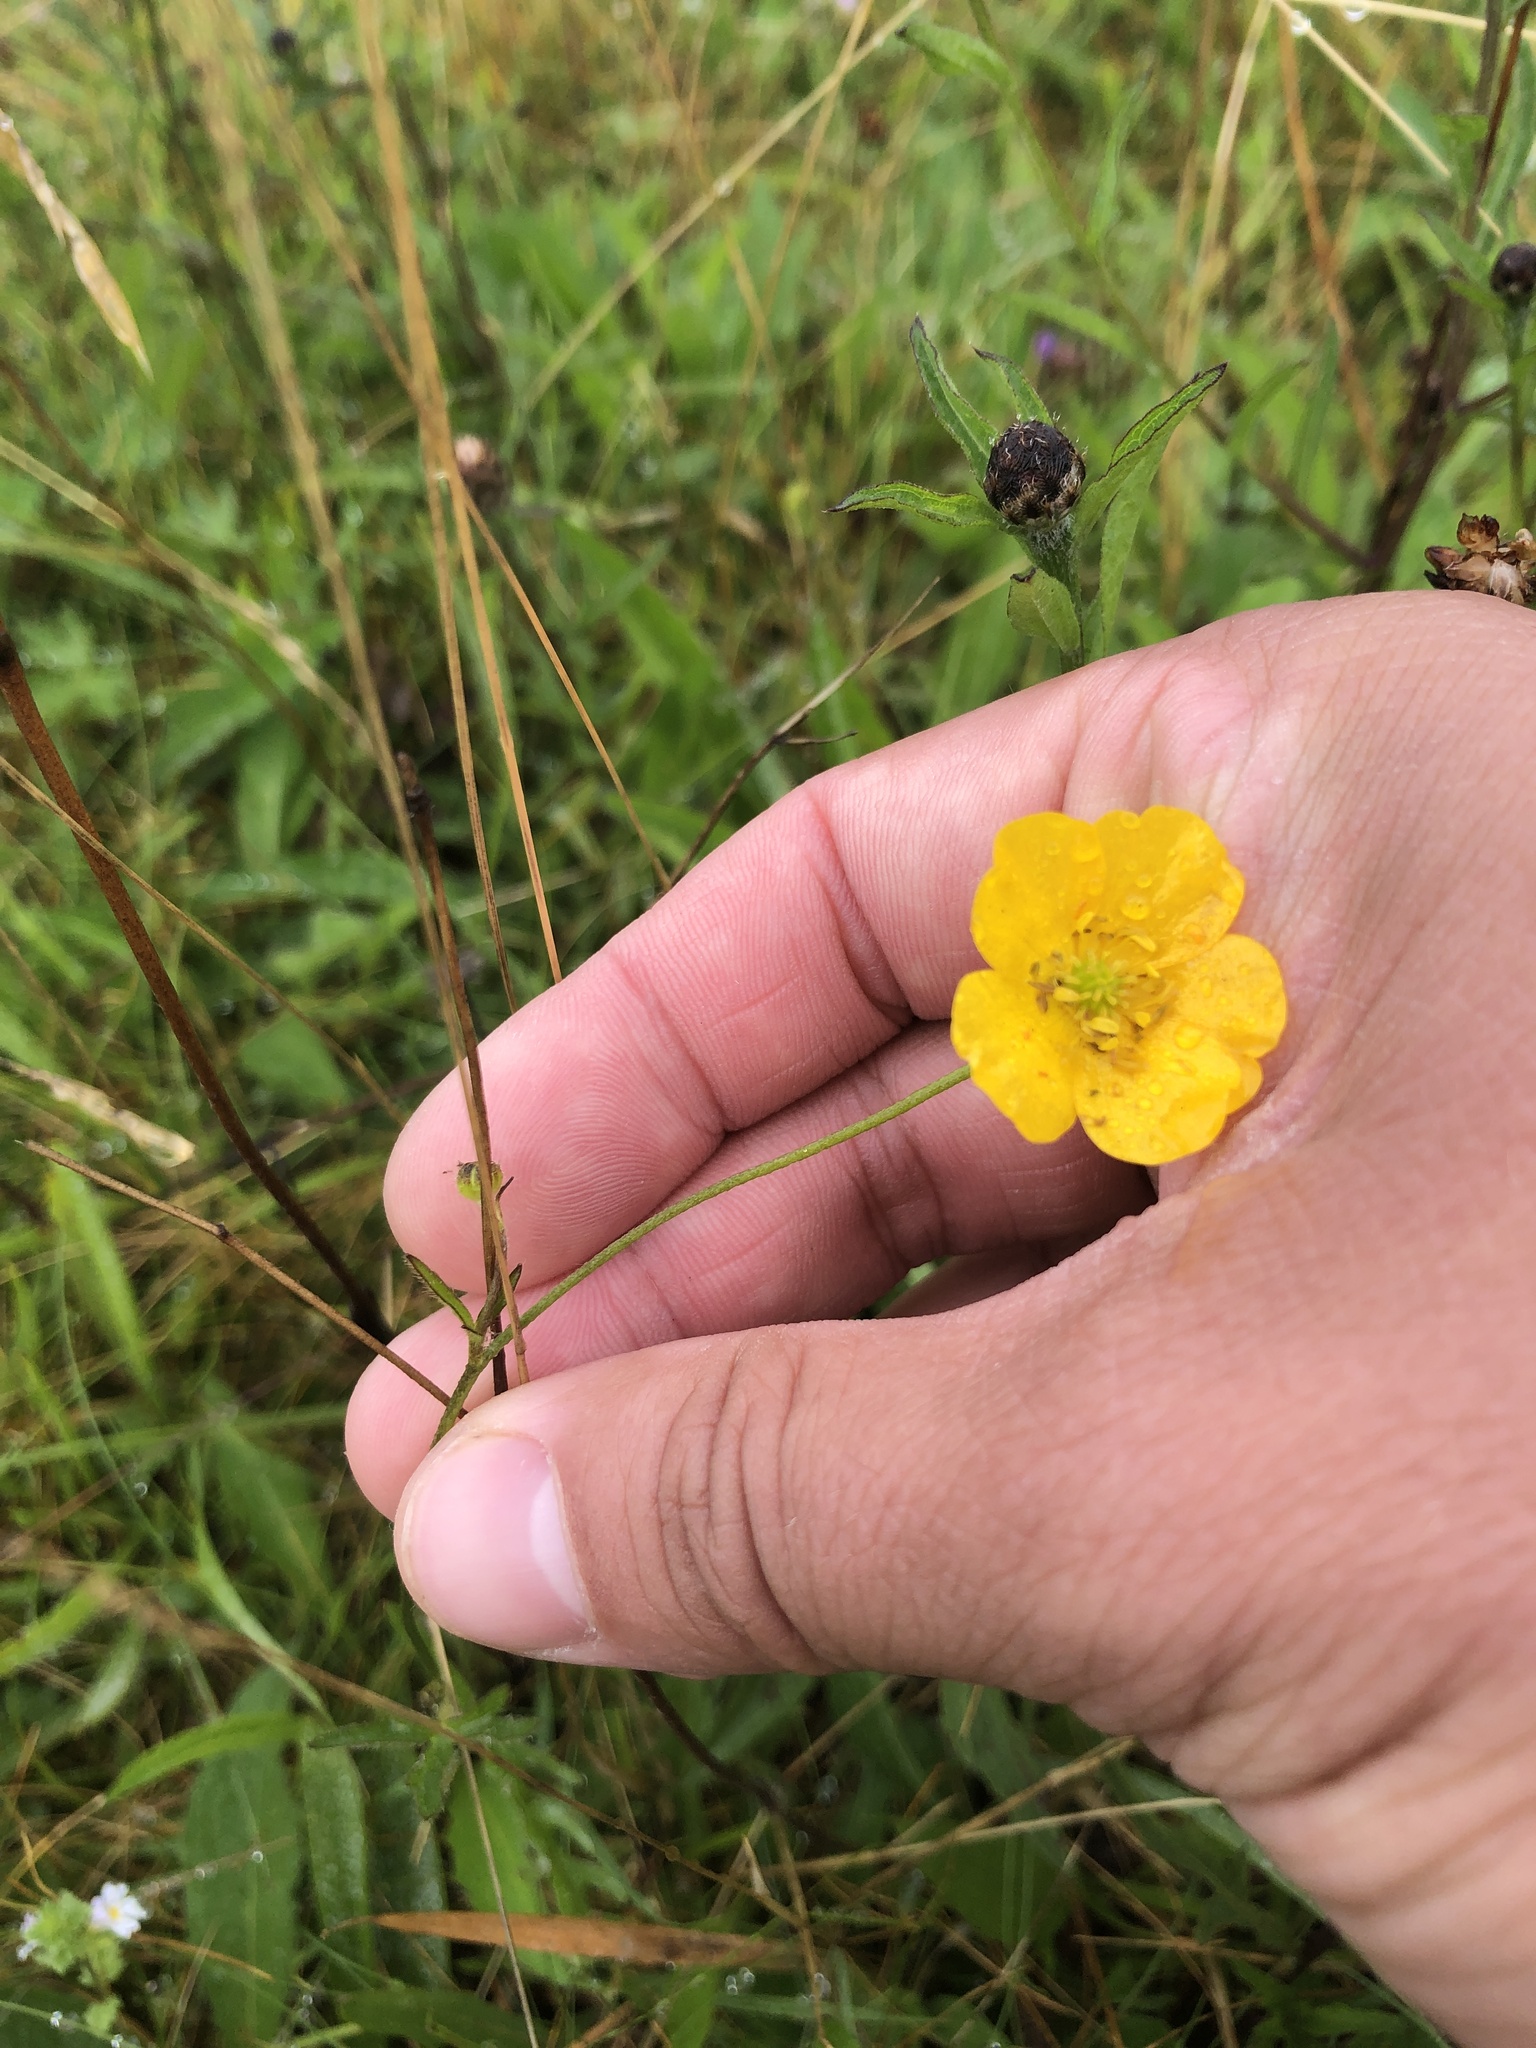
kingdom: Plantae
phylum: Tracheophyta
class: Magnoliopsida
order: Ranunculales
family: Ranunculaceae
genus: Ranunculus
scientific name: Ranunculus acris
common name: Meadow buttercup
